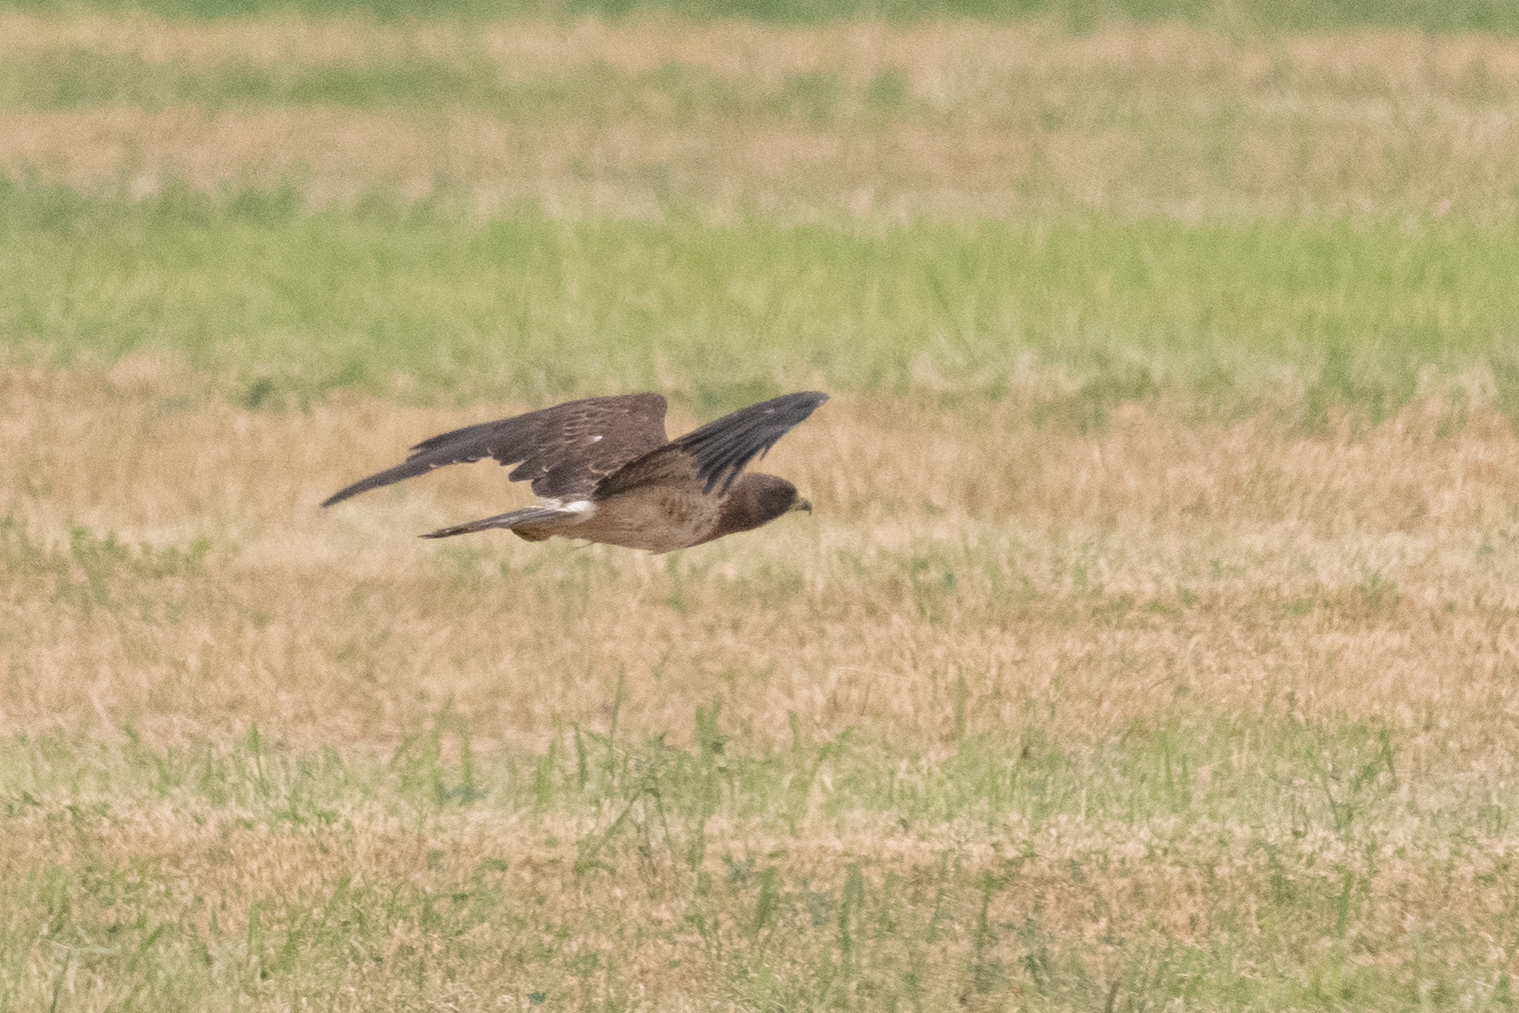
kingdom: Animalia
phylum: Chordata
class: Aves
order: Accipitriformes
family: Accipitridae
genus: Buteo
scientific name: Buteo swainsoni
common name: Swainson's hawk
